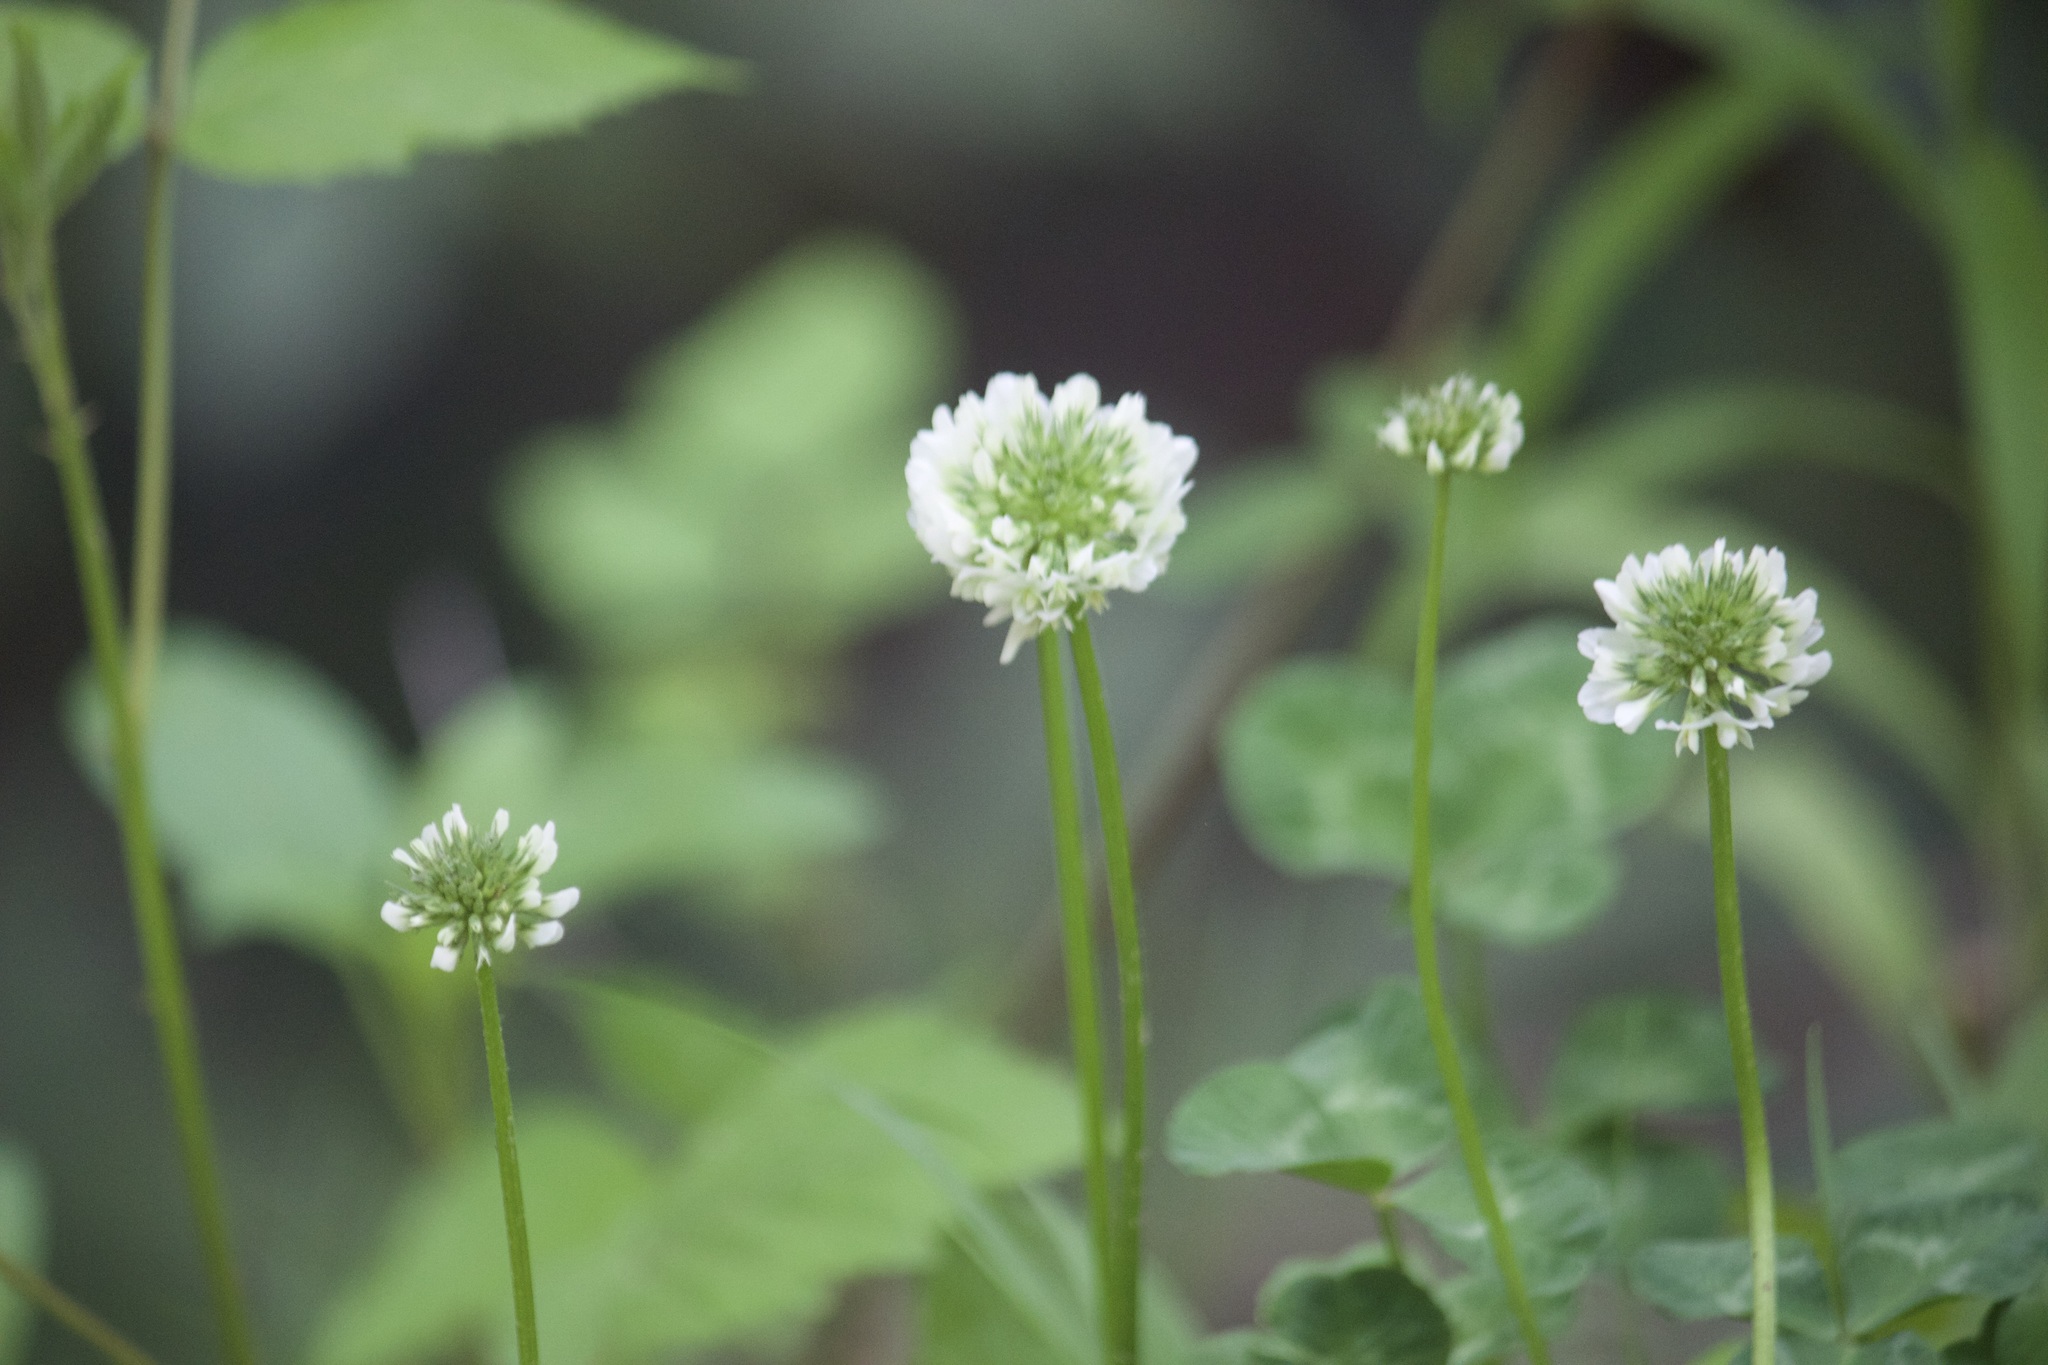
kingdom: Plantae
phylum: Tracheophyta
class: Magnoliopsida
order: Fabales
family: Fabaceae
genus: Trifolium
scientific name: Trifolium repens
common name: White clover
